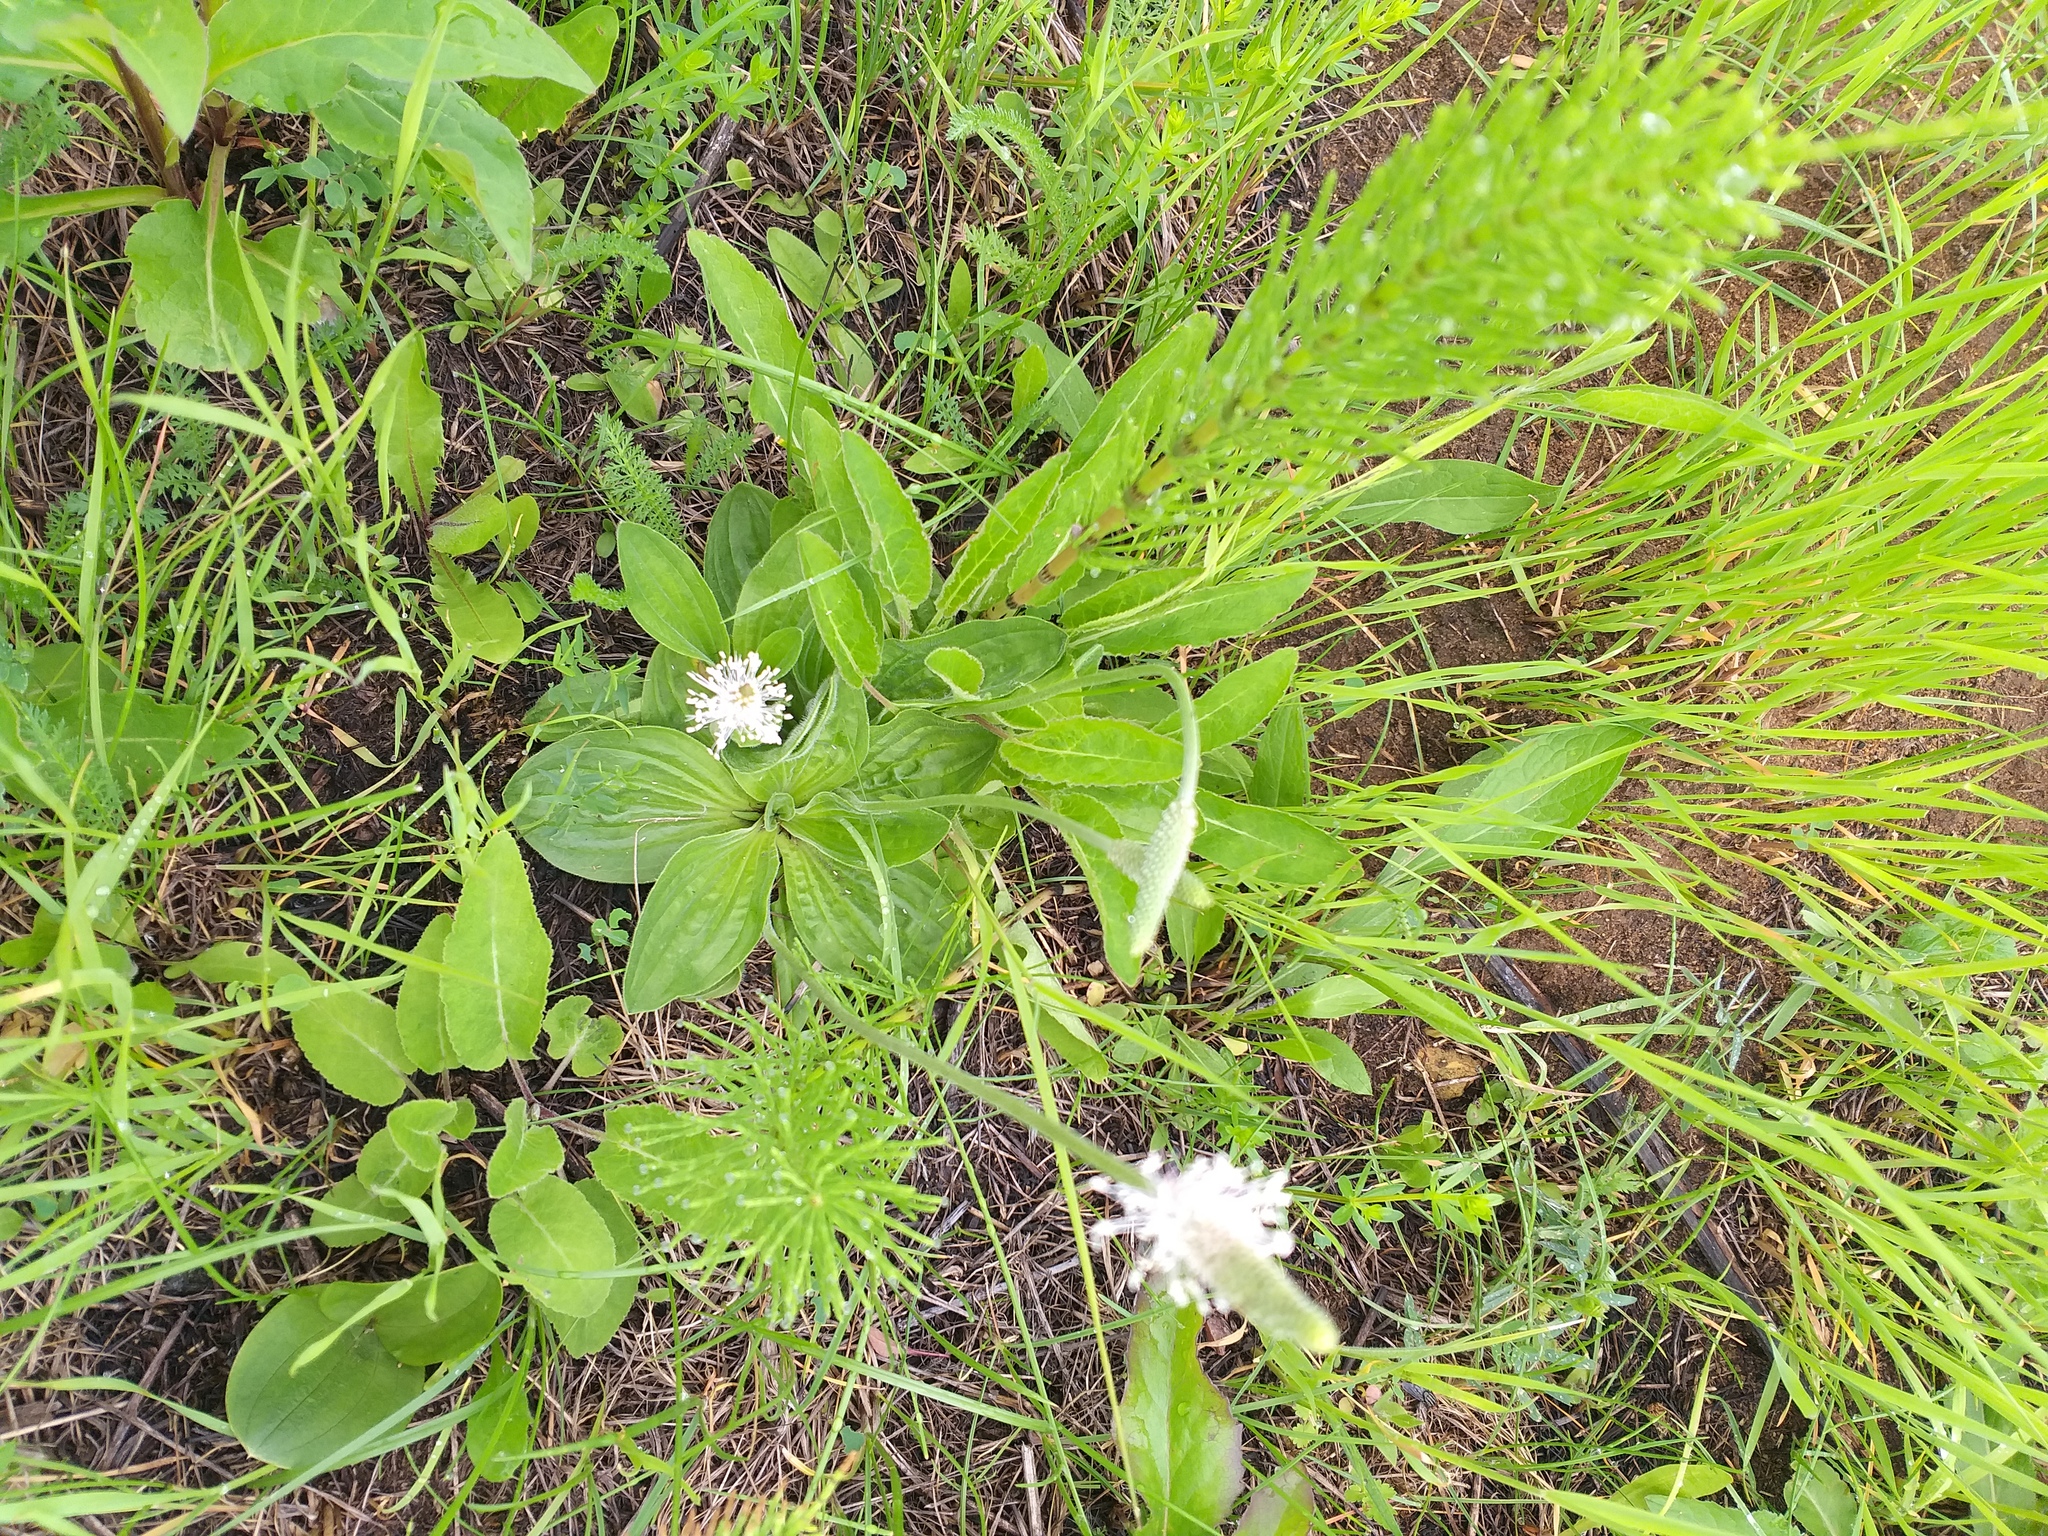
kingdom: Plantae
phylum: Tracheophyta
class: Magnoliopsida
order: Lamiales
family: Plantaginaceae
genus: Plantago
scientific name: Plantago media
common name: Hoary plantain
